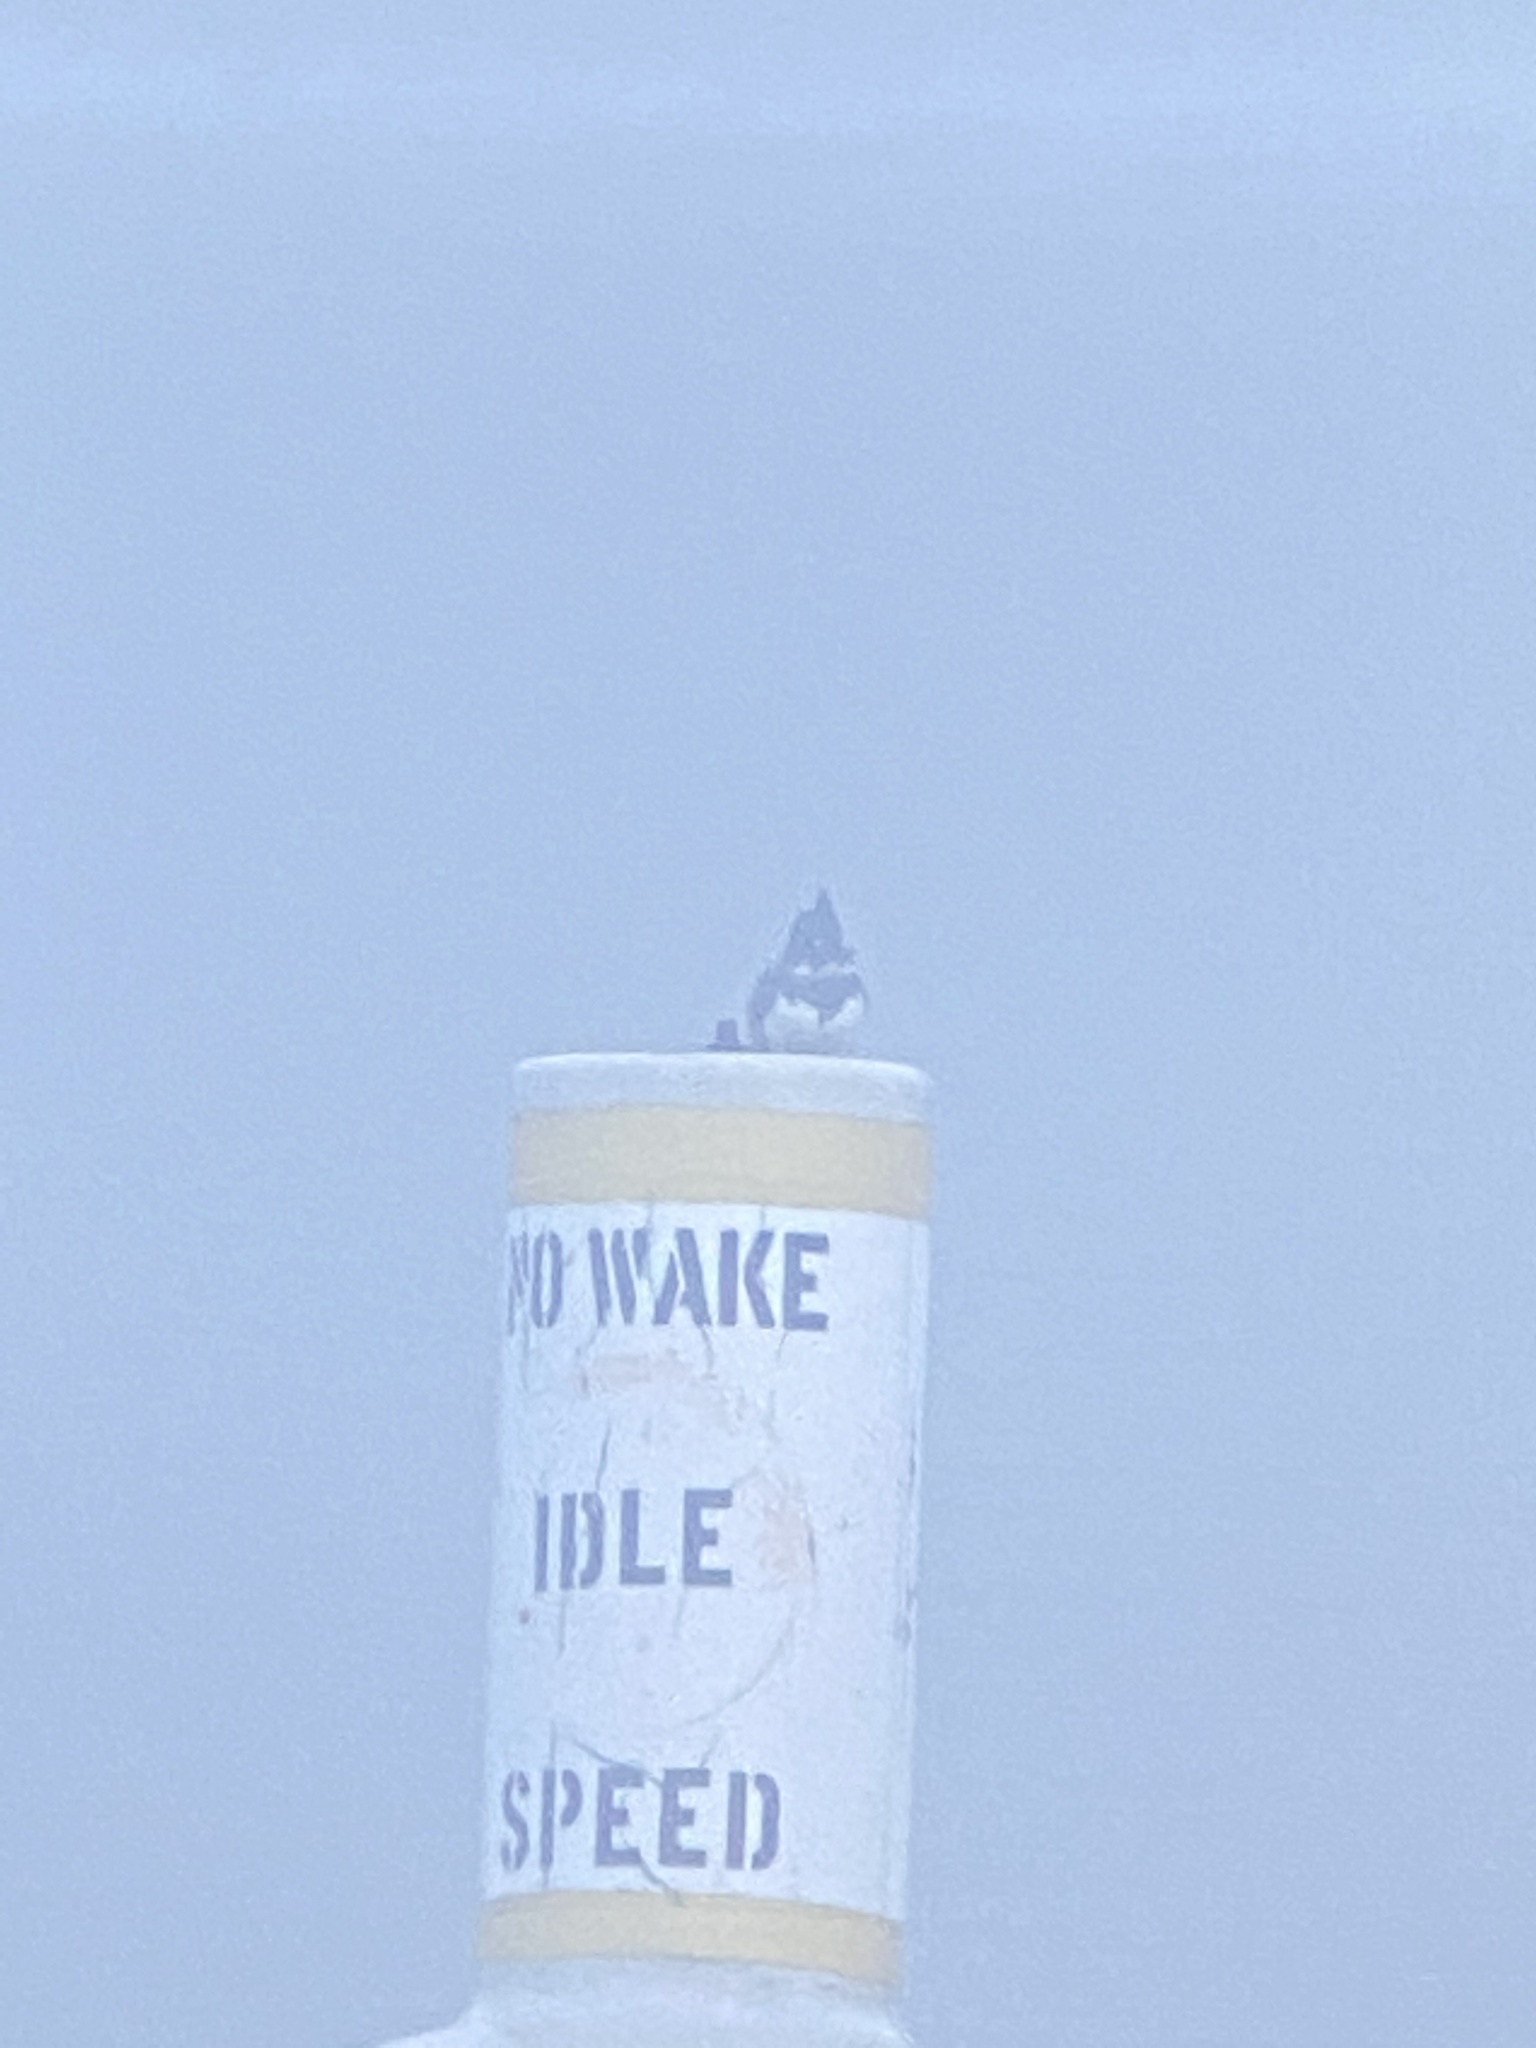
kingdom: Animalia
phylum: Chordata
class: Aves
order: Coraciiformes
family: Alcedinidae
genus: Megaceryle
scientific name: Megaceryle alcyon
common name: Belted kingfisher
